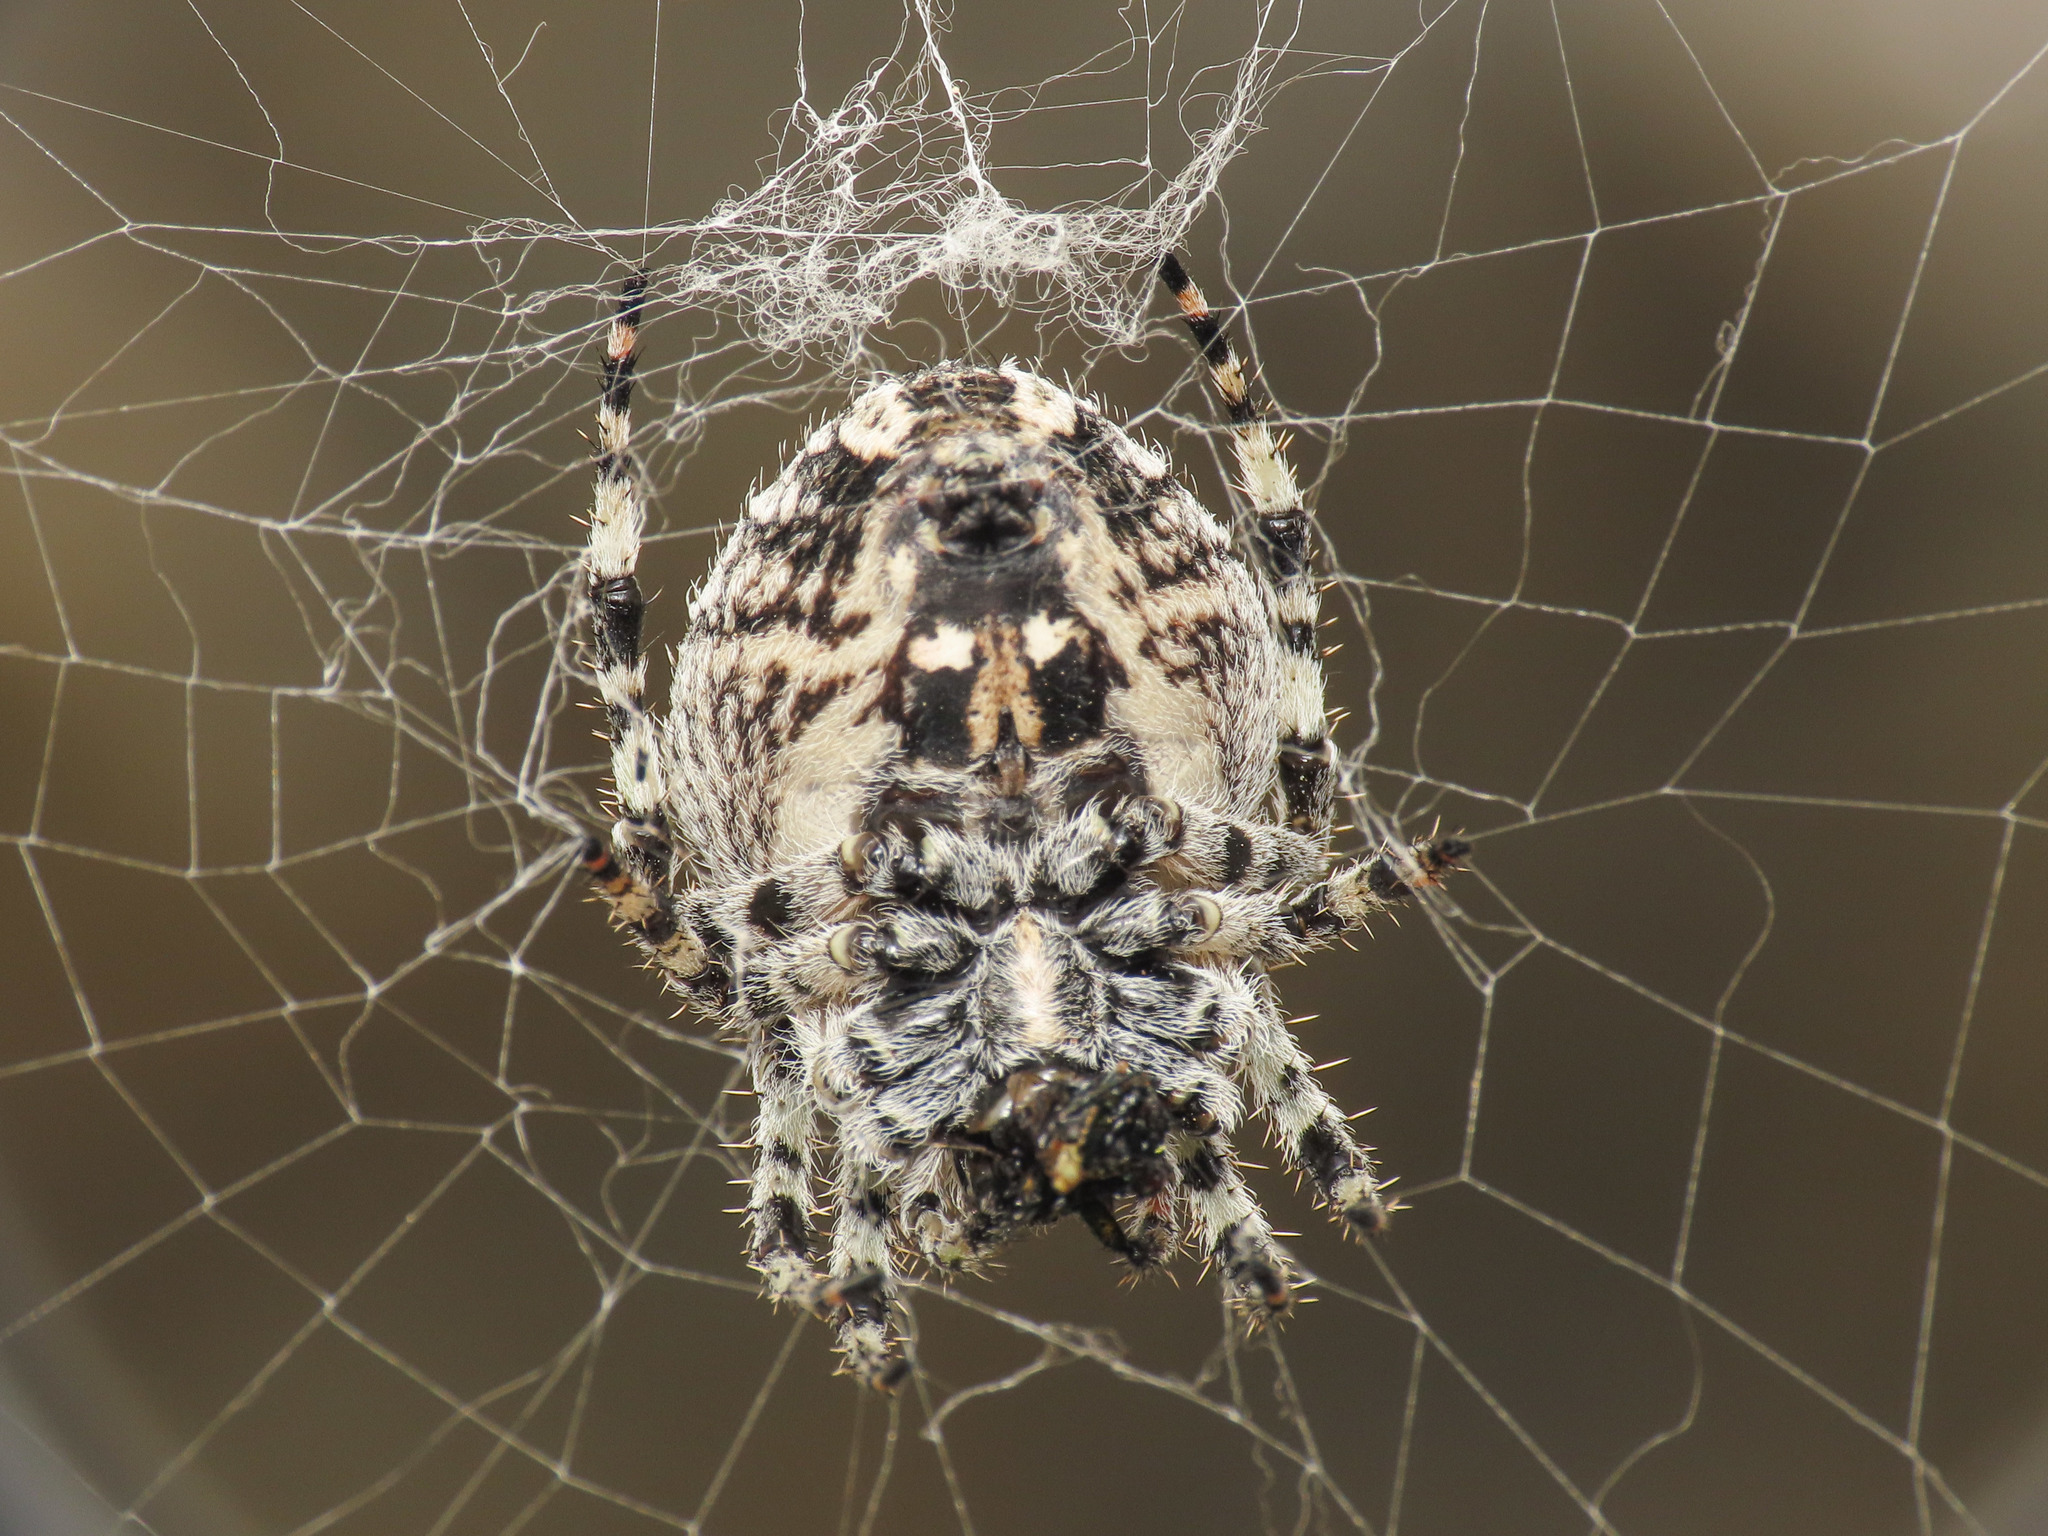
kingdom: Animalia
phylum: Arthropoda
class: Arachnida
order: Araneae
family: Araneidae
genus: Araneus
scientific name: Araneus circe
